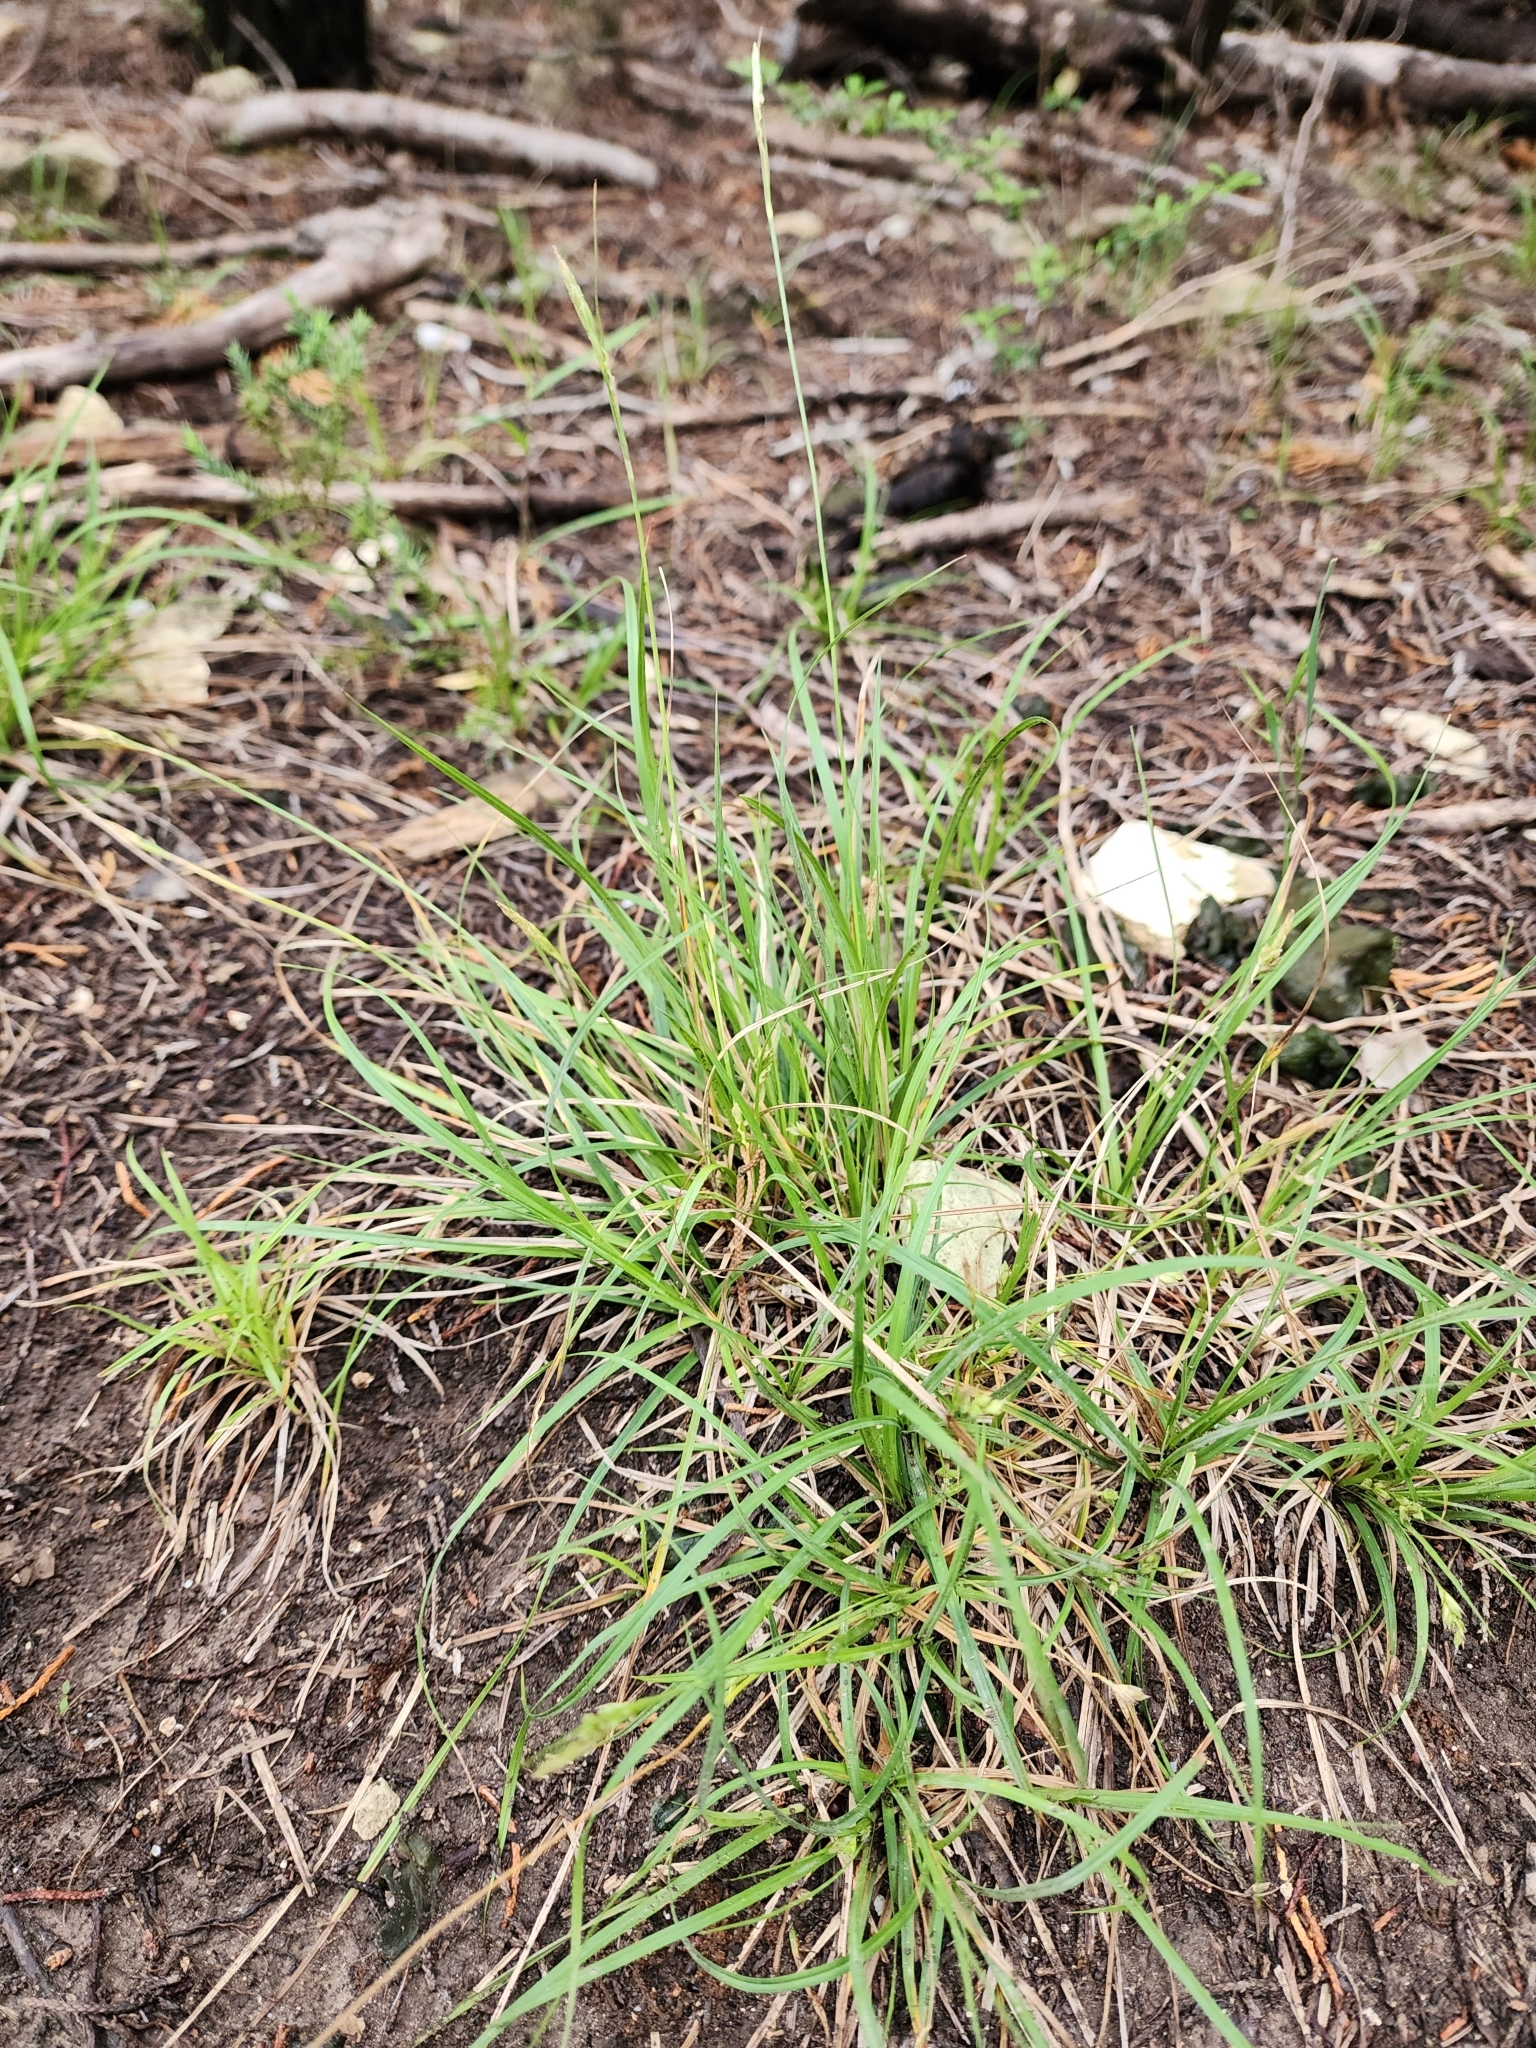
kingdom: Plantae
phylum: Tracheophyta
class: Liliopsida
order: Poales
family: Cyperaceae
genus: Carex
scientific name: Carex planostachys
